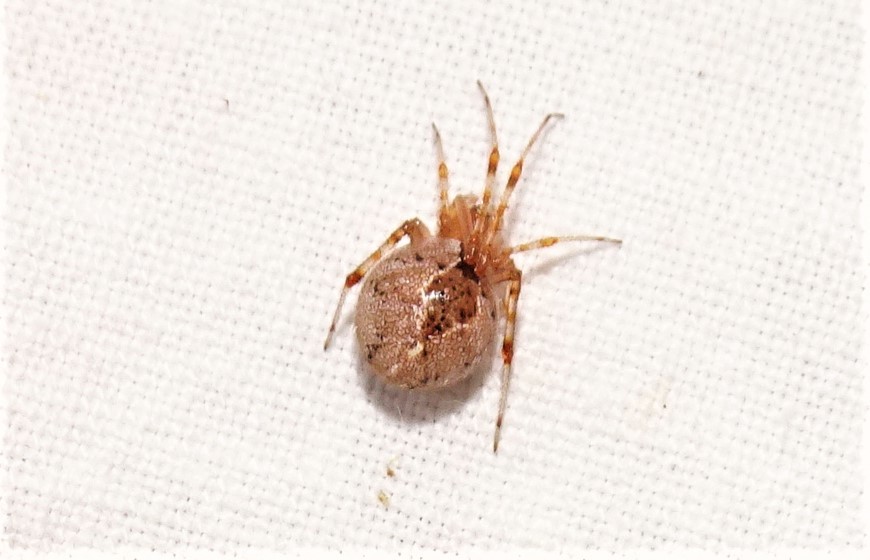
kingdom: Animalia
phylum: Arthropoda
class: Arachnida
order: Araneae
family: Theridiidae
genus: Cryptachaea
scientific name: Cryptachaea veruculata
